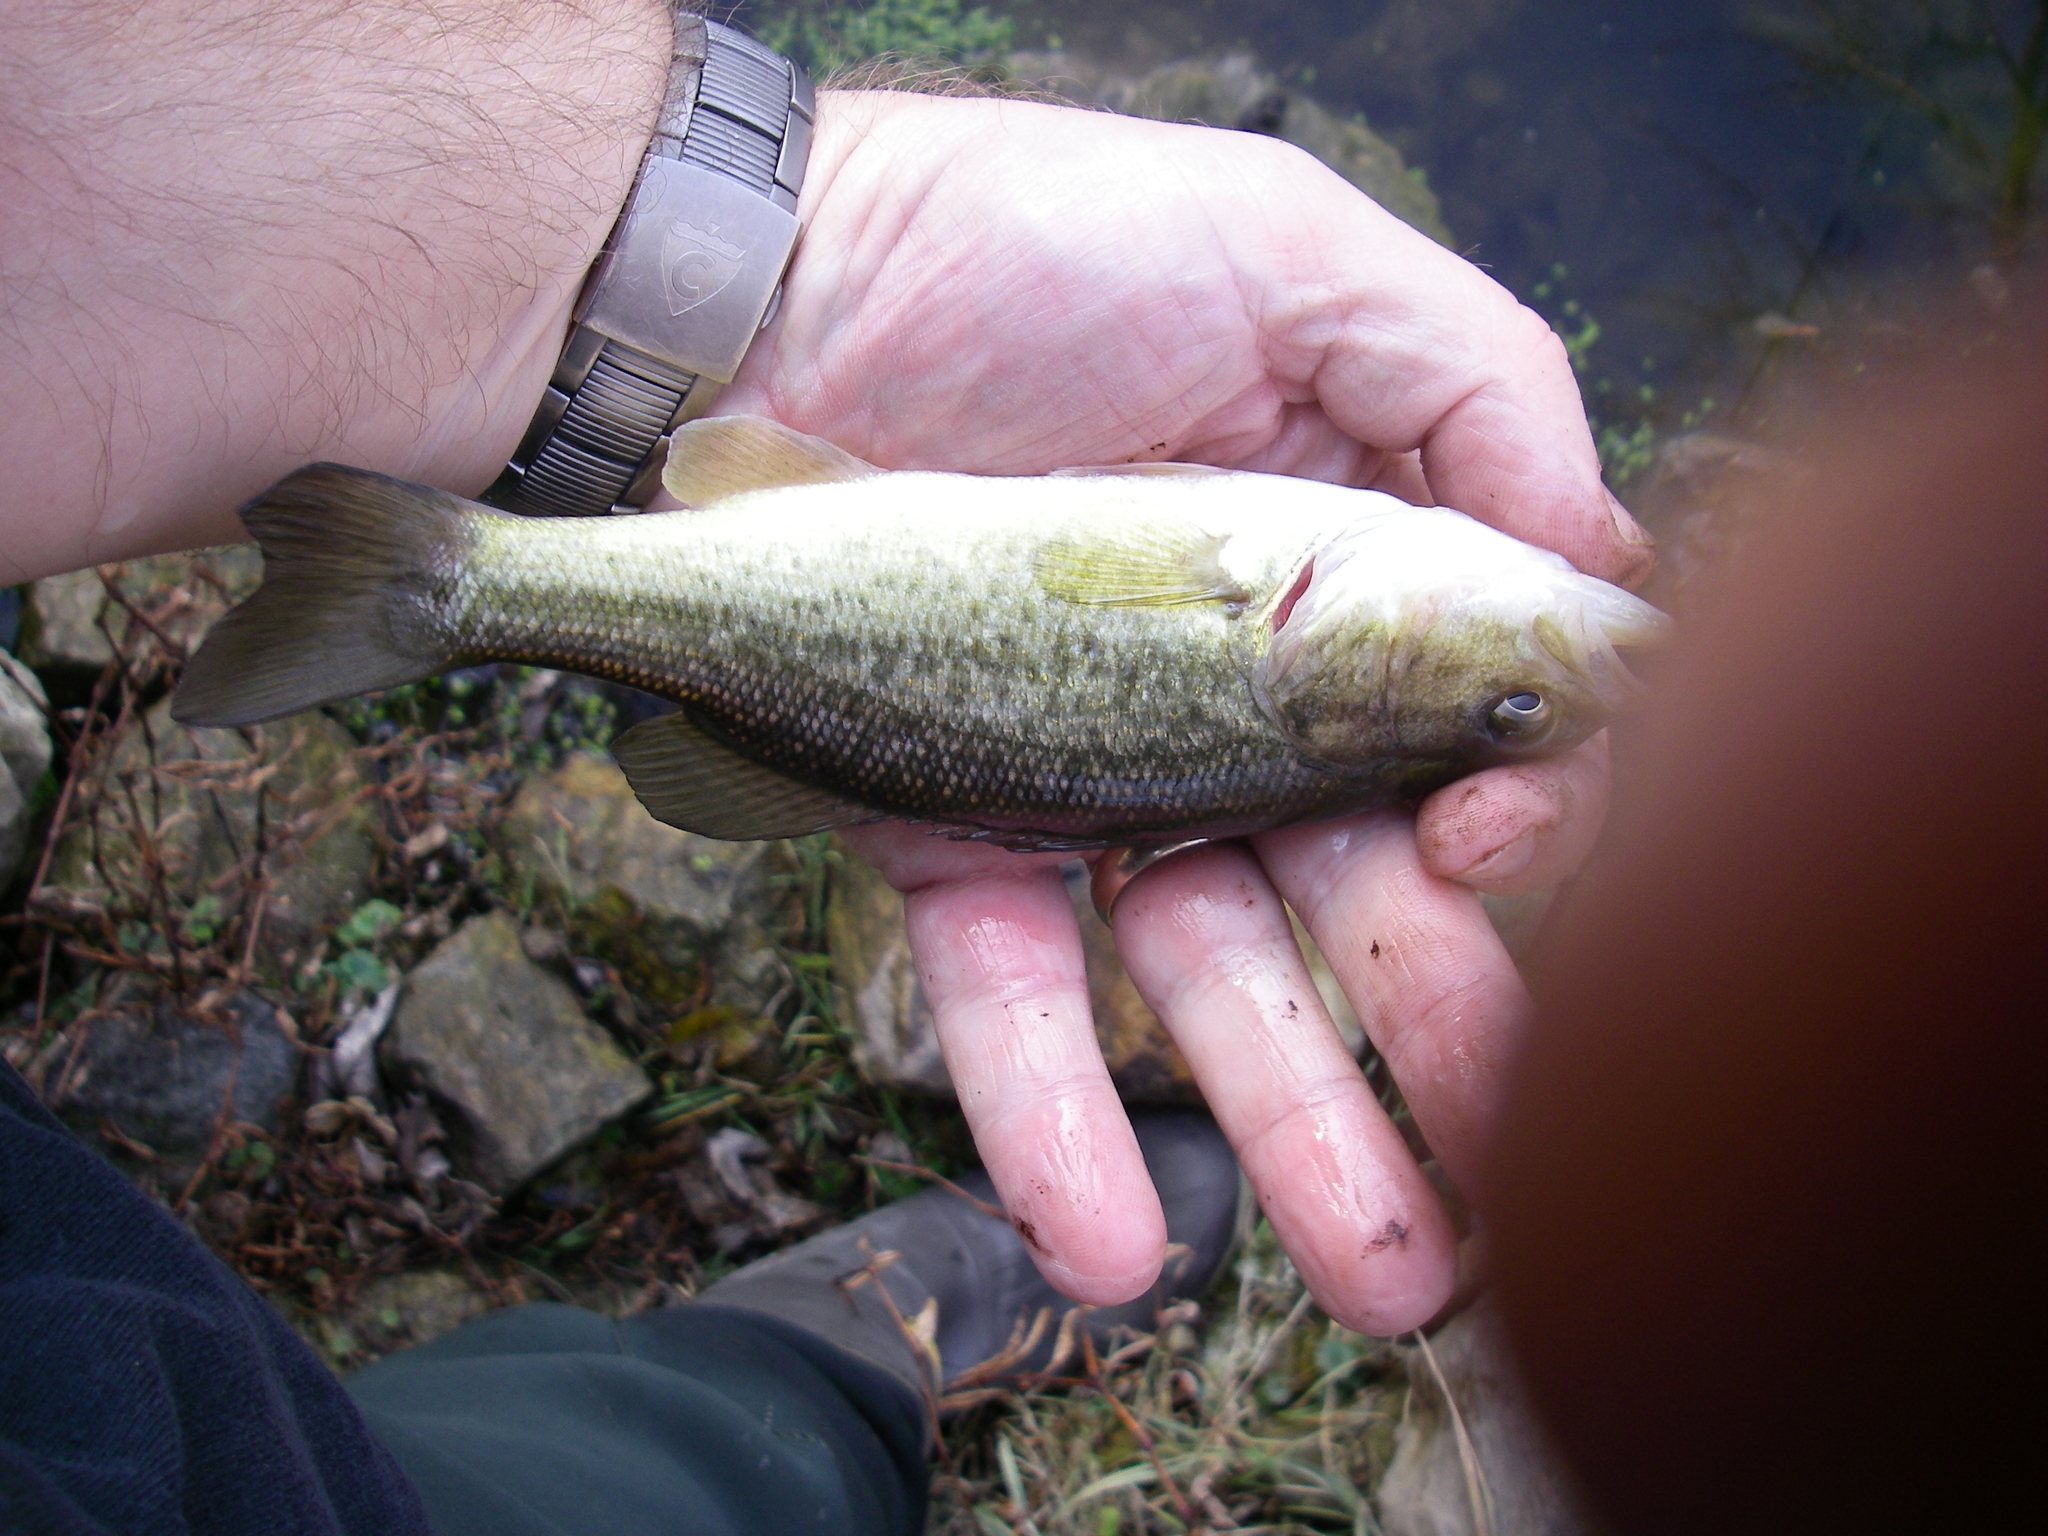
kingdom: Animalia
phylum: Chordata
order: Perciformes
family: Centrarchidae
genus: Micropterus
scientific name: Micropterus
